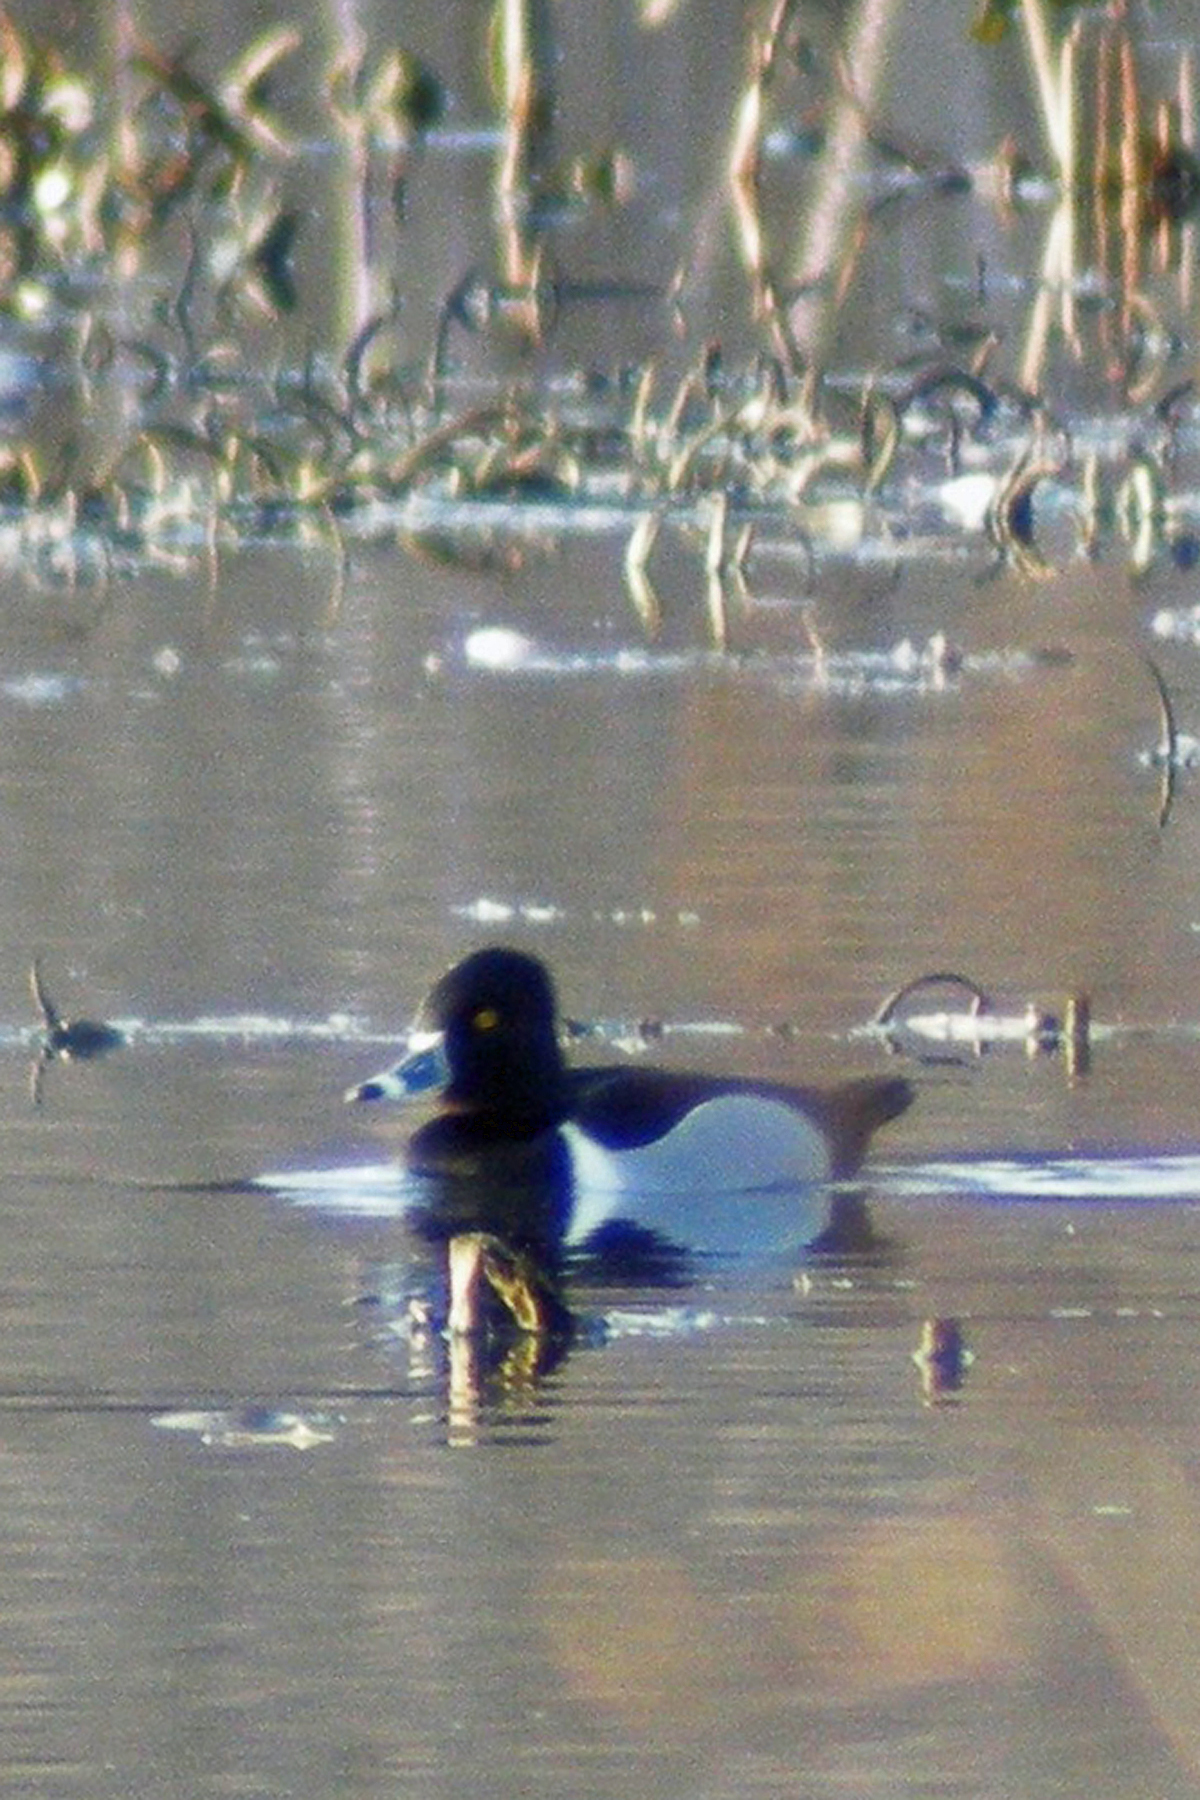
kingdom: Animalia
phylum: Chordata
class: Aves
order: Anseriformes
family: Anatidae
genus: Aythya
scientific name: Aythya collaris
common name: Ring-necked duck
